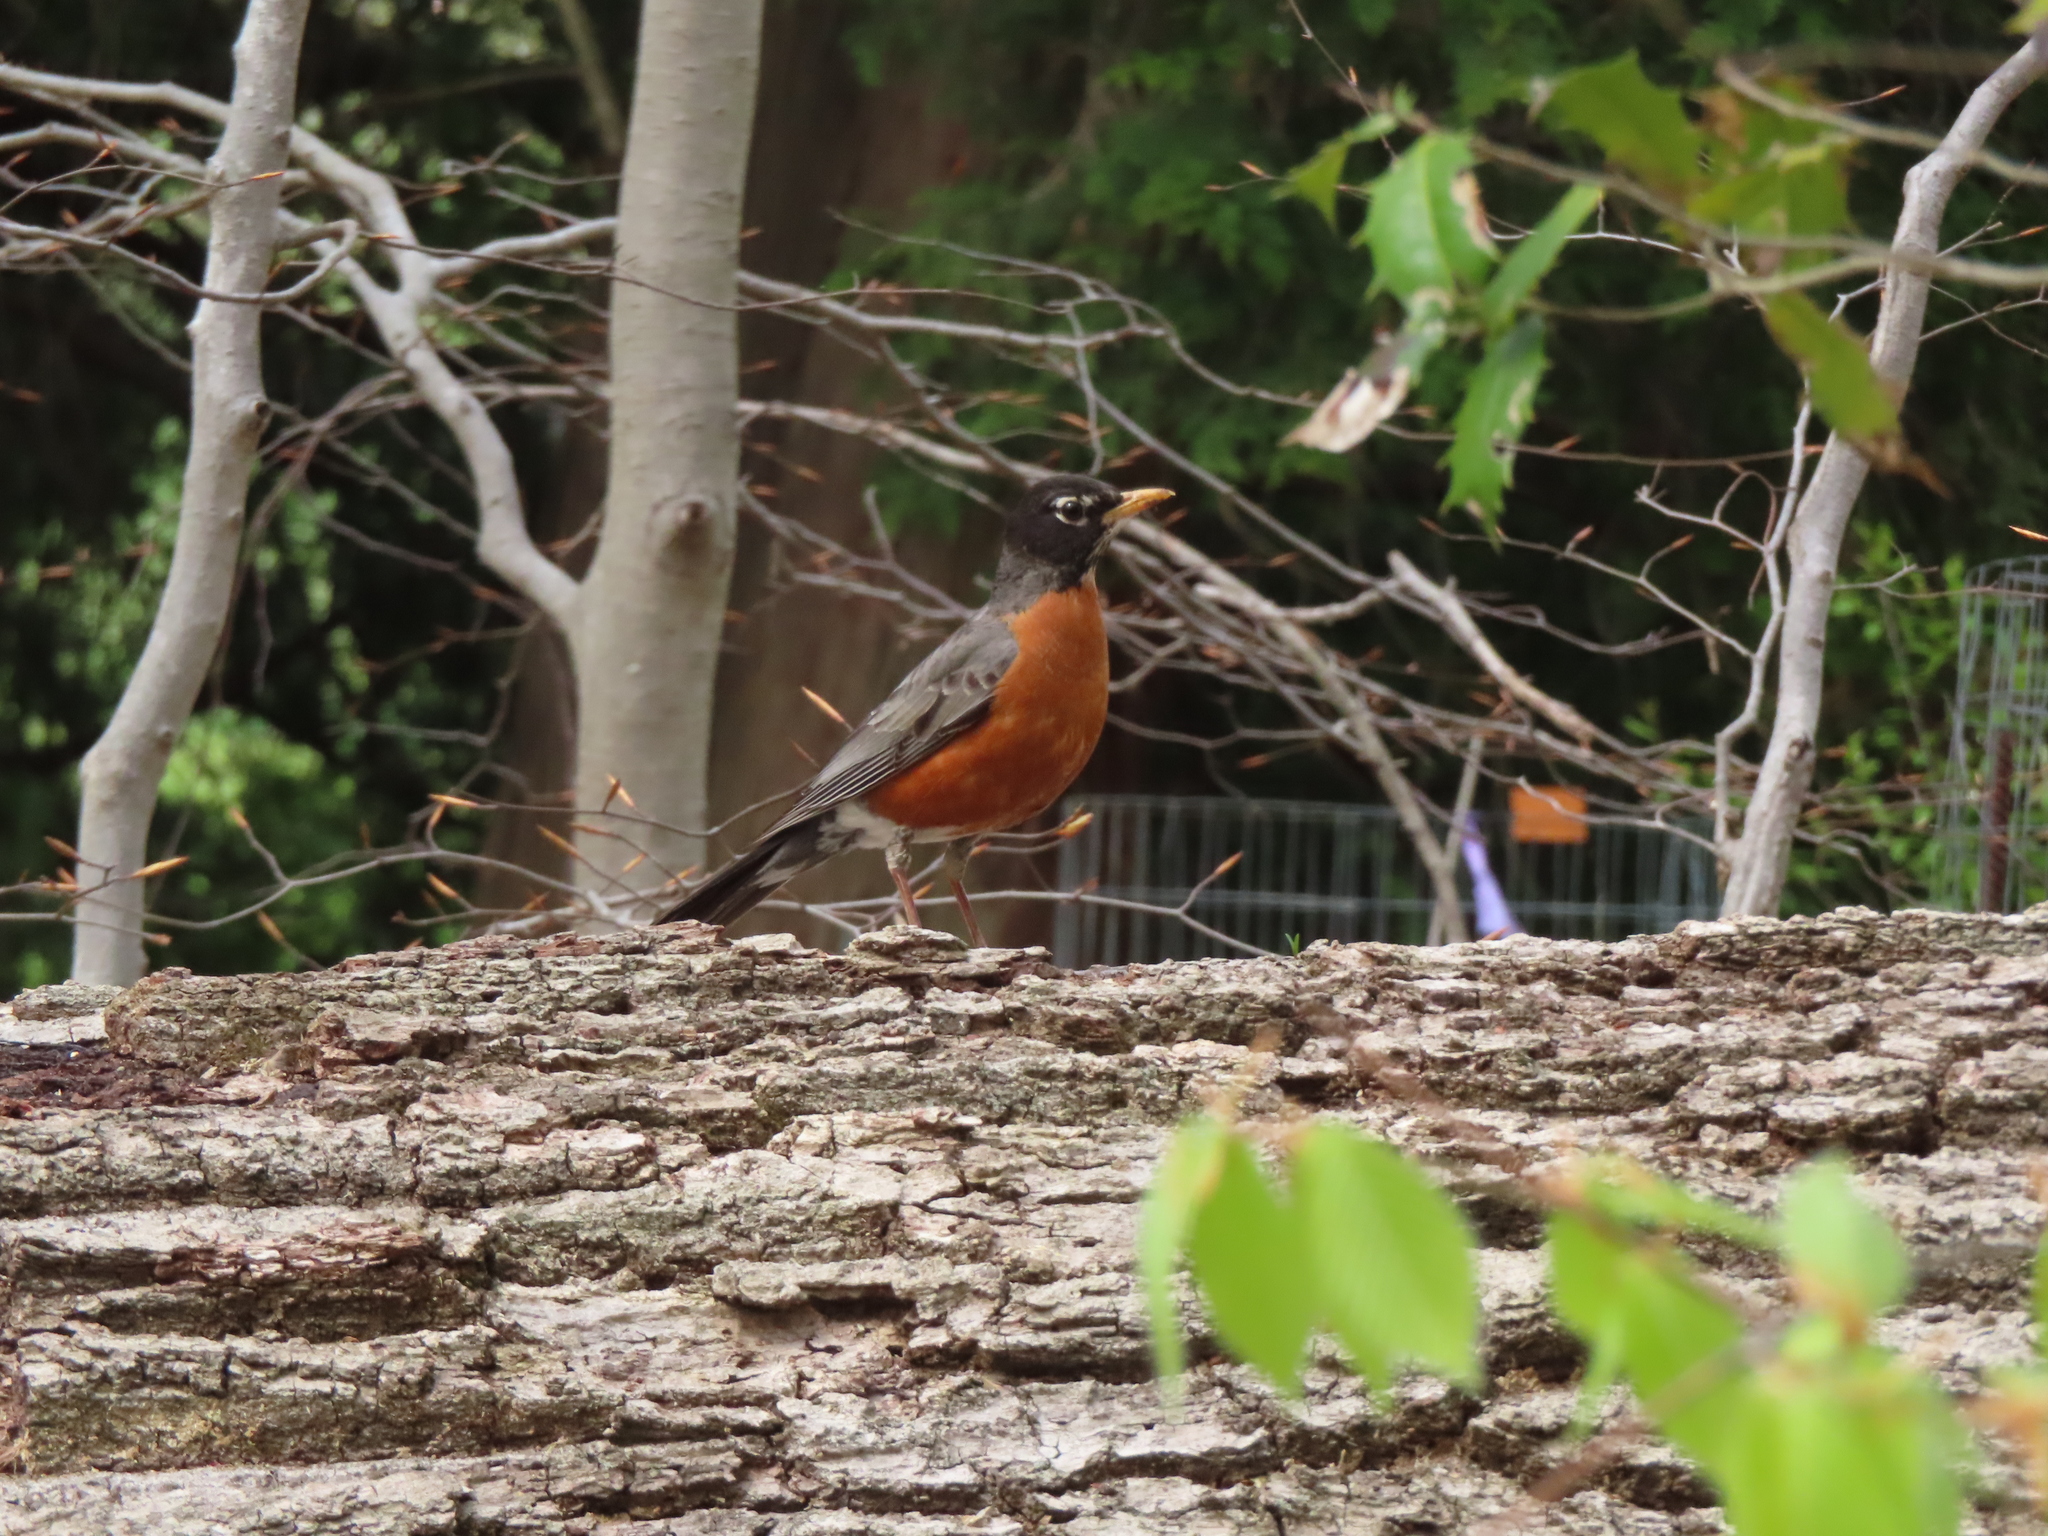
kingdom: Animalia
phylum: Chordata
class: Aves
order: Passeriformes
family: Turdidae
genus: Turdus
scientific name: Turdus migratorius
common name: American robin
